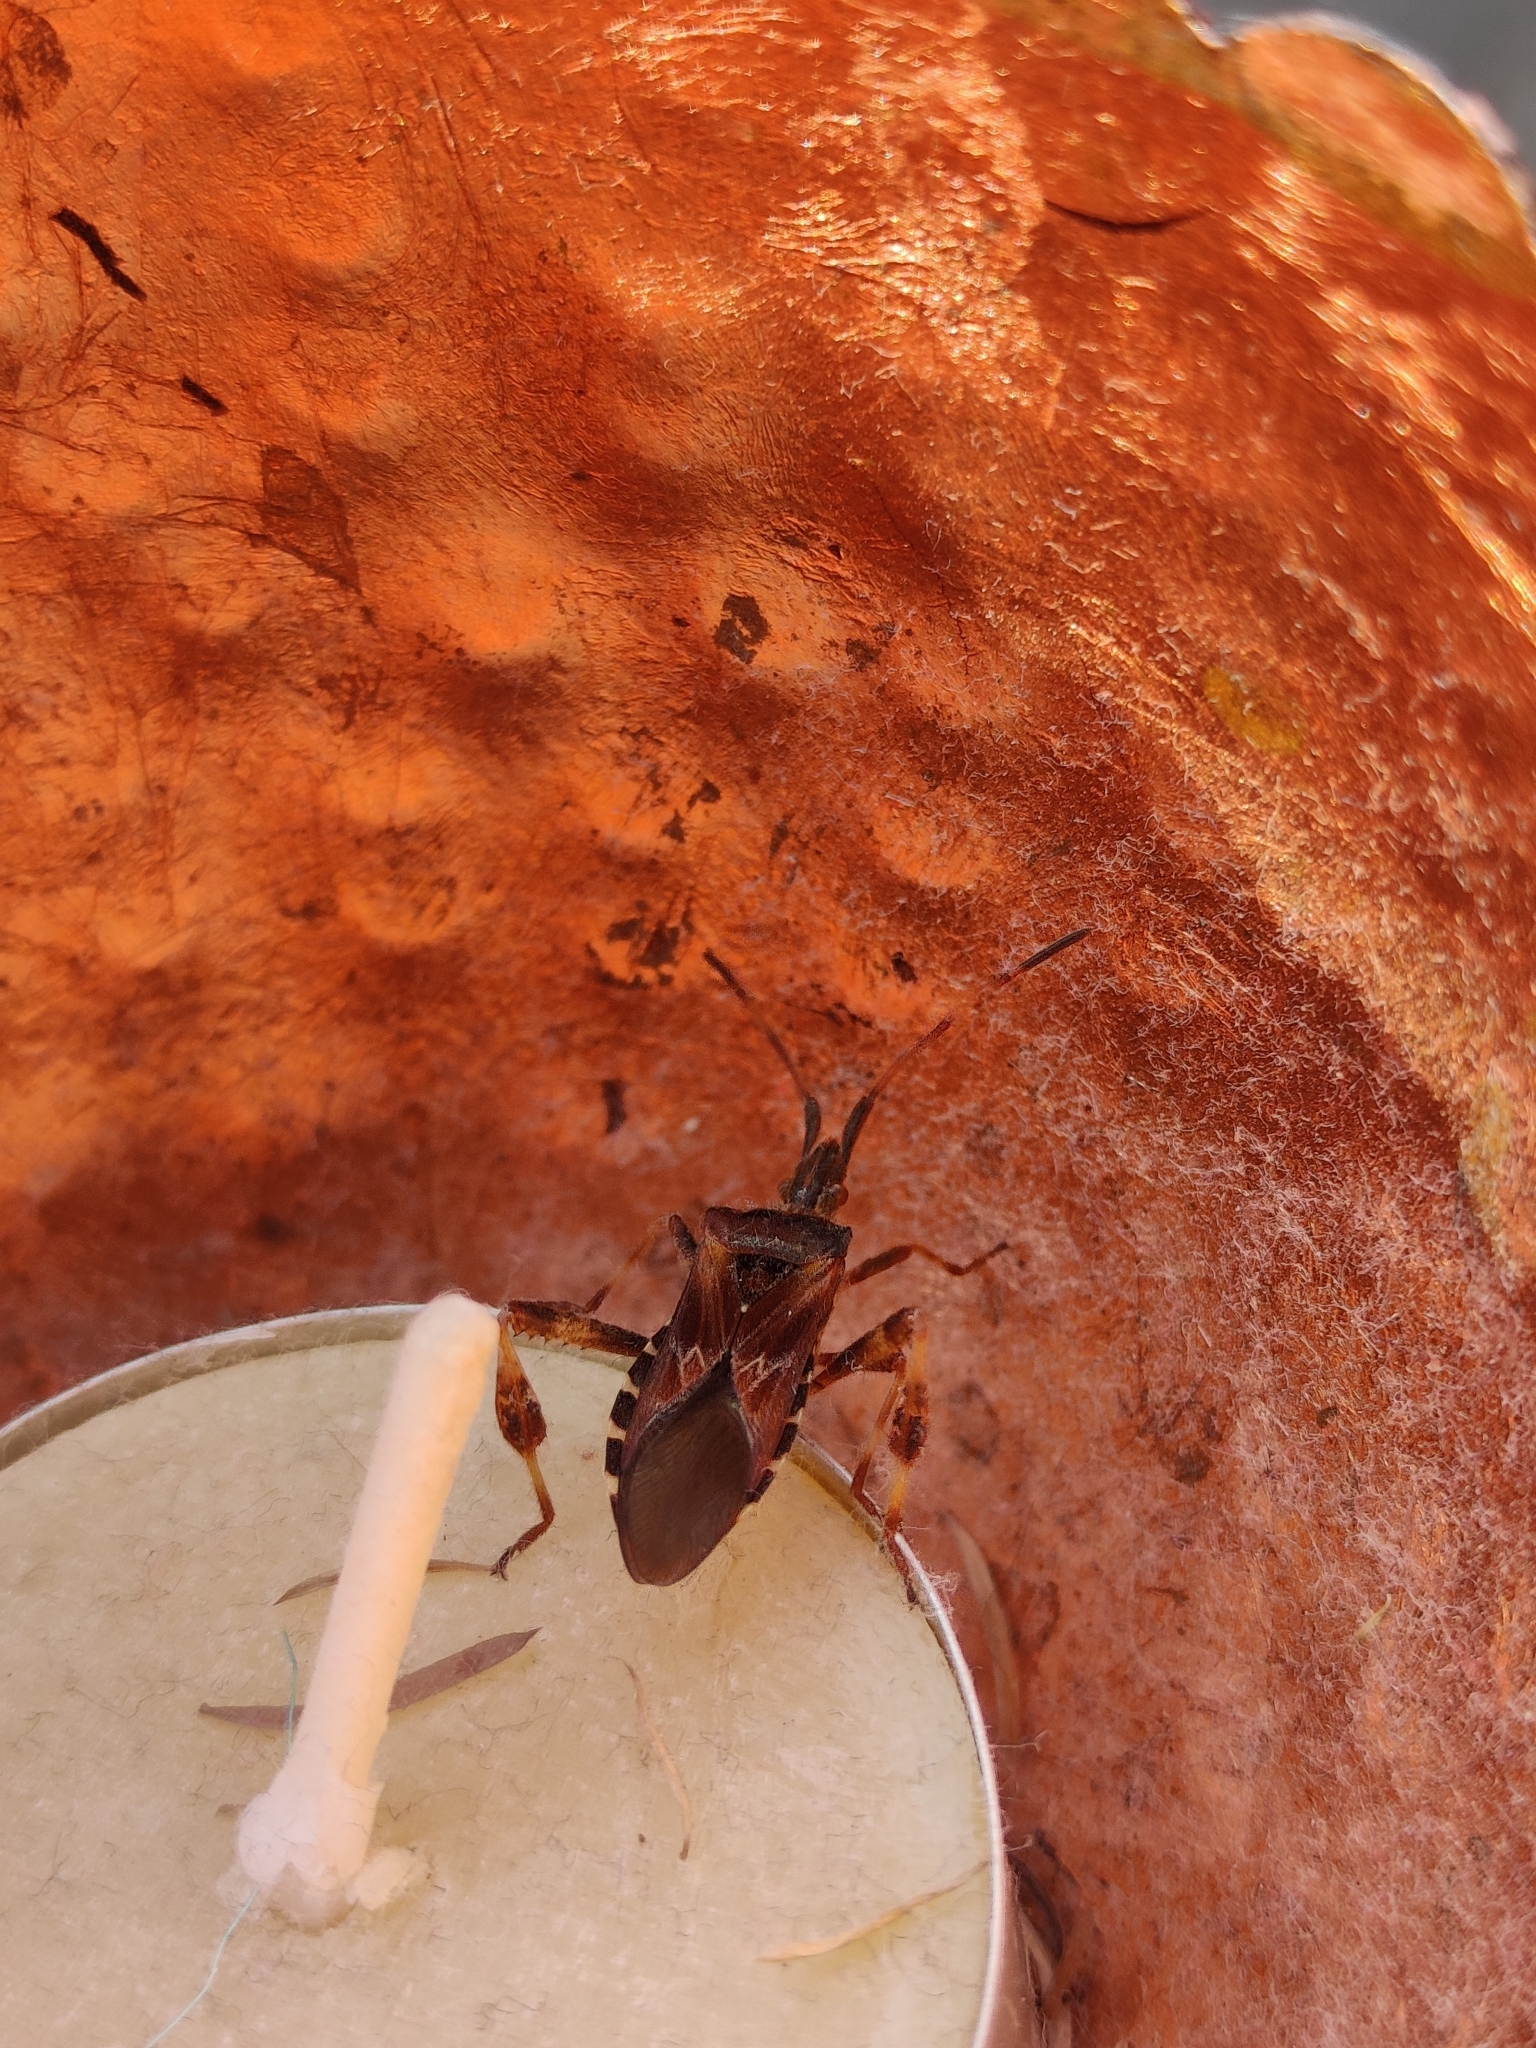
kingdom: Animalia
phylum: Arthropoda
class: Insecta
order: Hemiptera
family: Coreidae
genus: Leptoglossus
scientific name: Leptoglossus occidentalis
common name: Western conifer-seed bug
